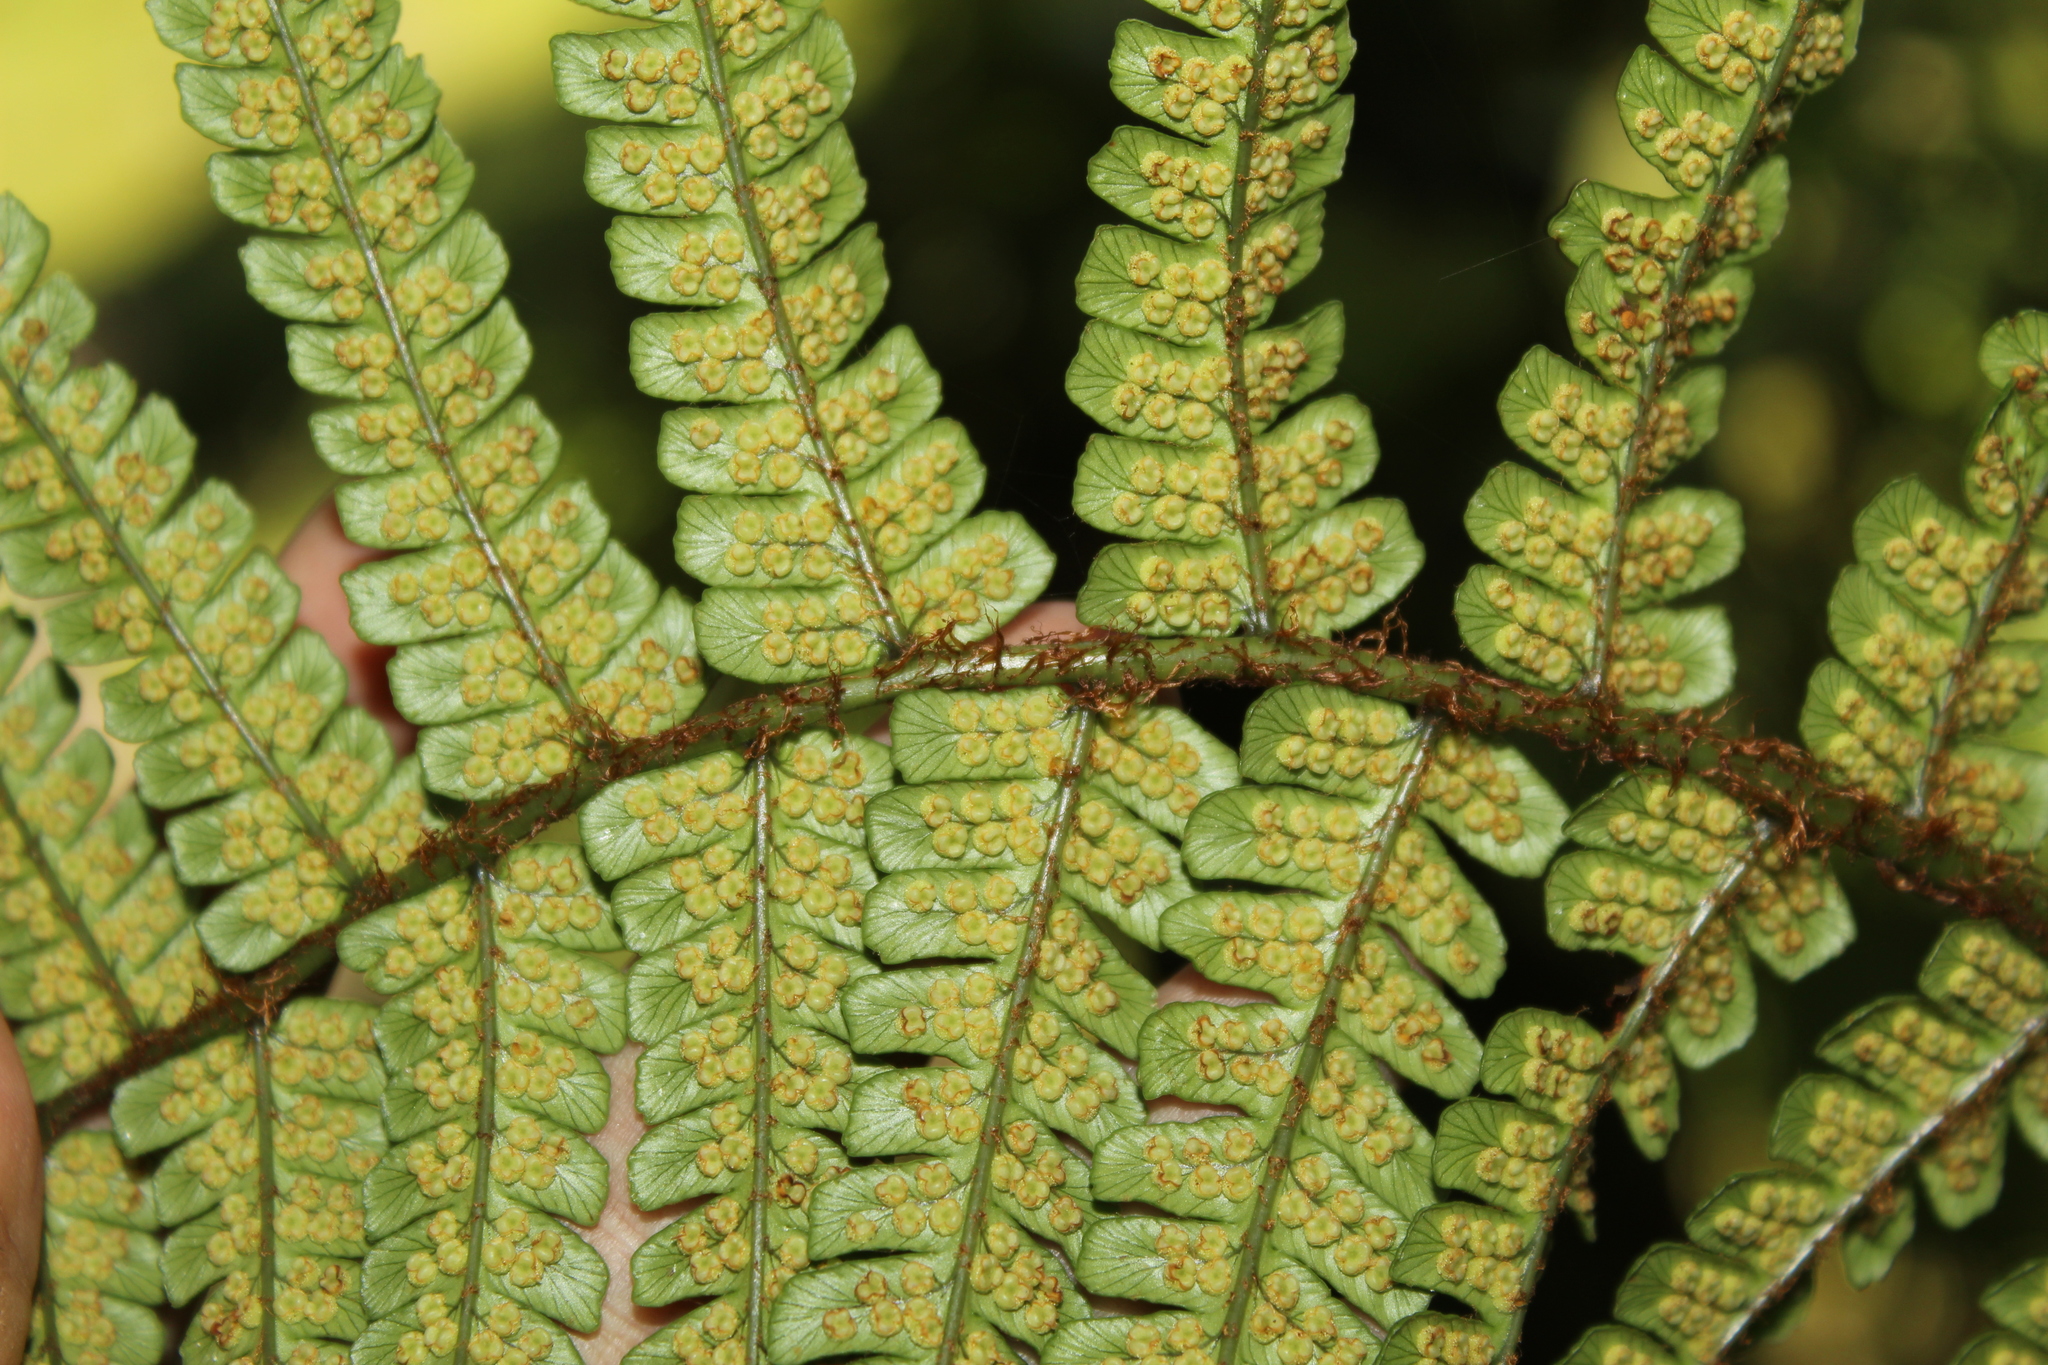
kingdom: Plantae
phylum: Tracheophyta
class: Polypodiopsida
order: Polypodiales
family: Dryopteridaceae
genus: Dryopteris
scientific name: Dryopteris wallichiana
